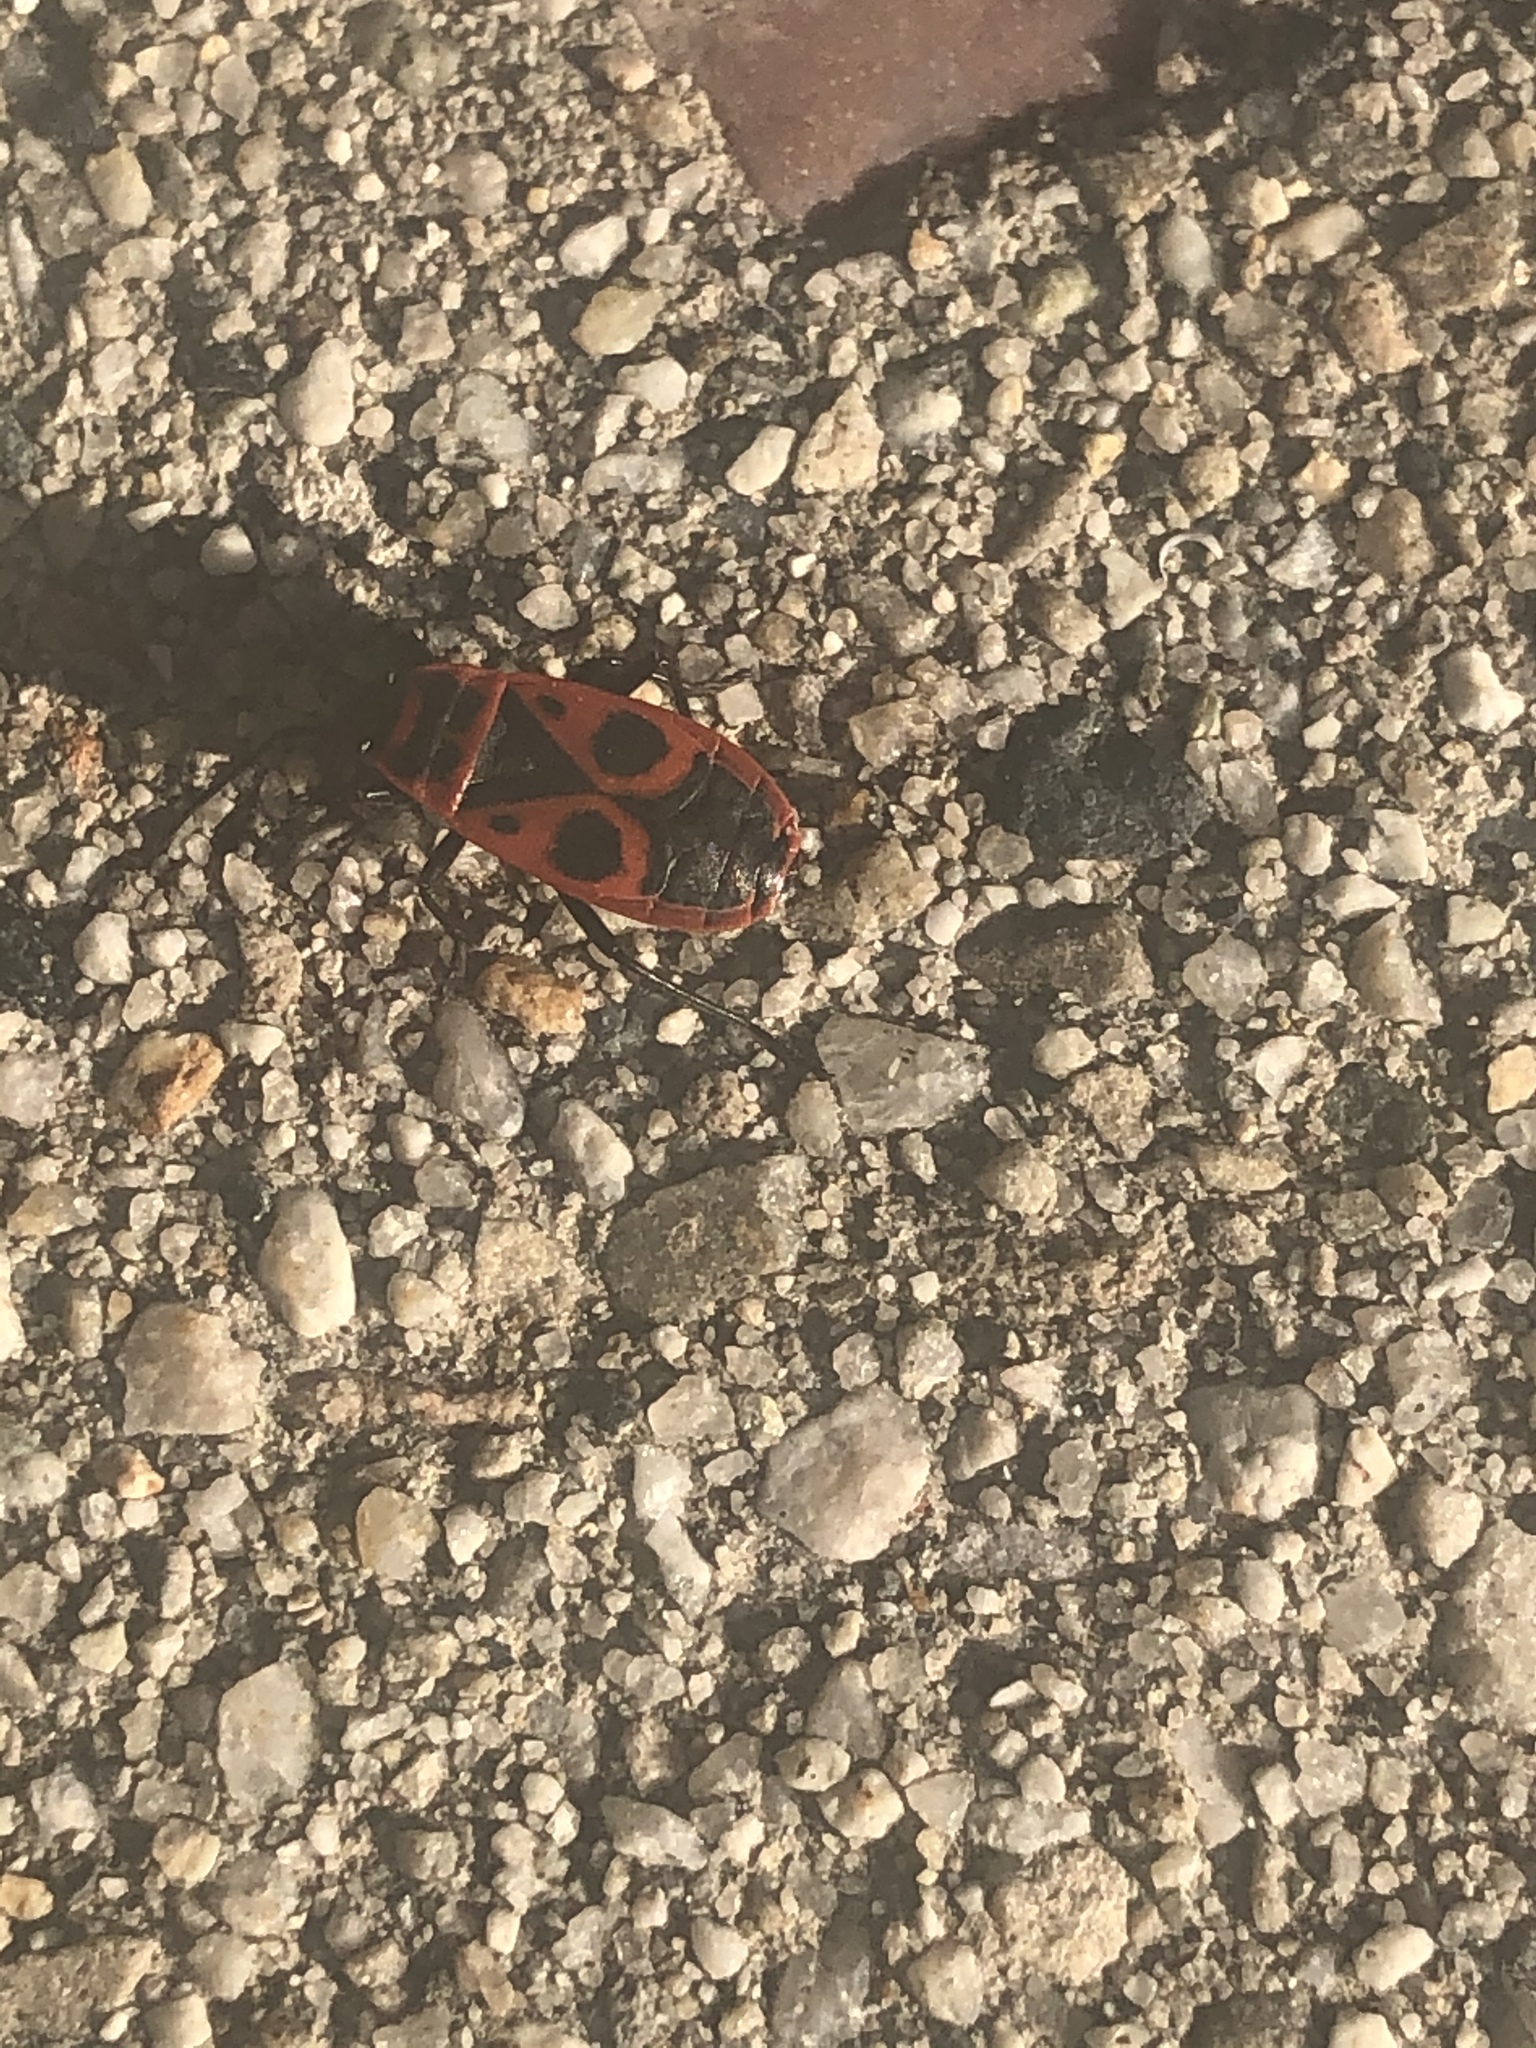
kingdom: Animalia
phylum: Arthropoda
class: Insecta
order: Hemiptera
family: Pyrrhocoridae
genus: Pyrrhocoris
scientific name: Pyrrhocoris apterus
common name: Firebug
